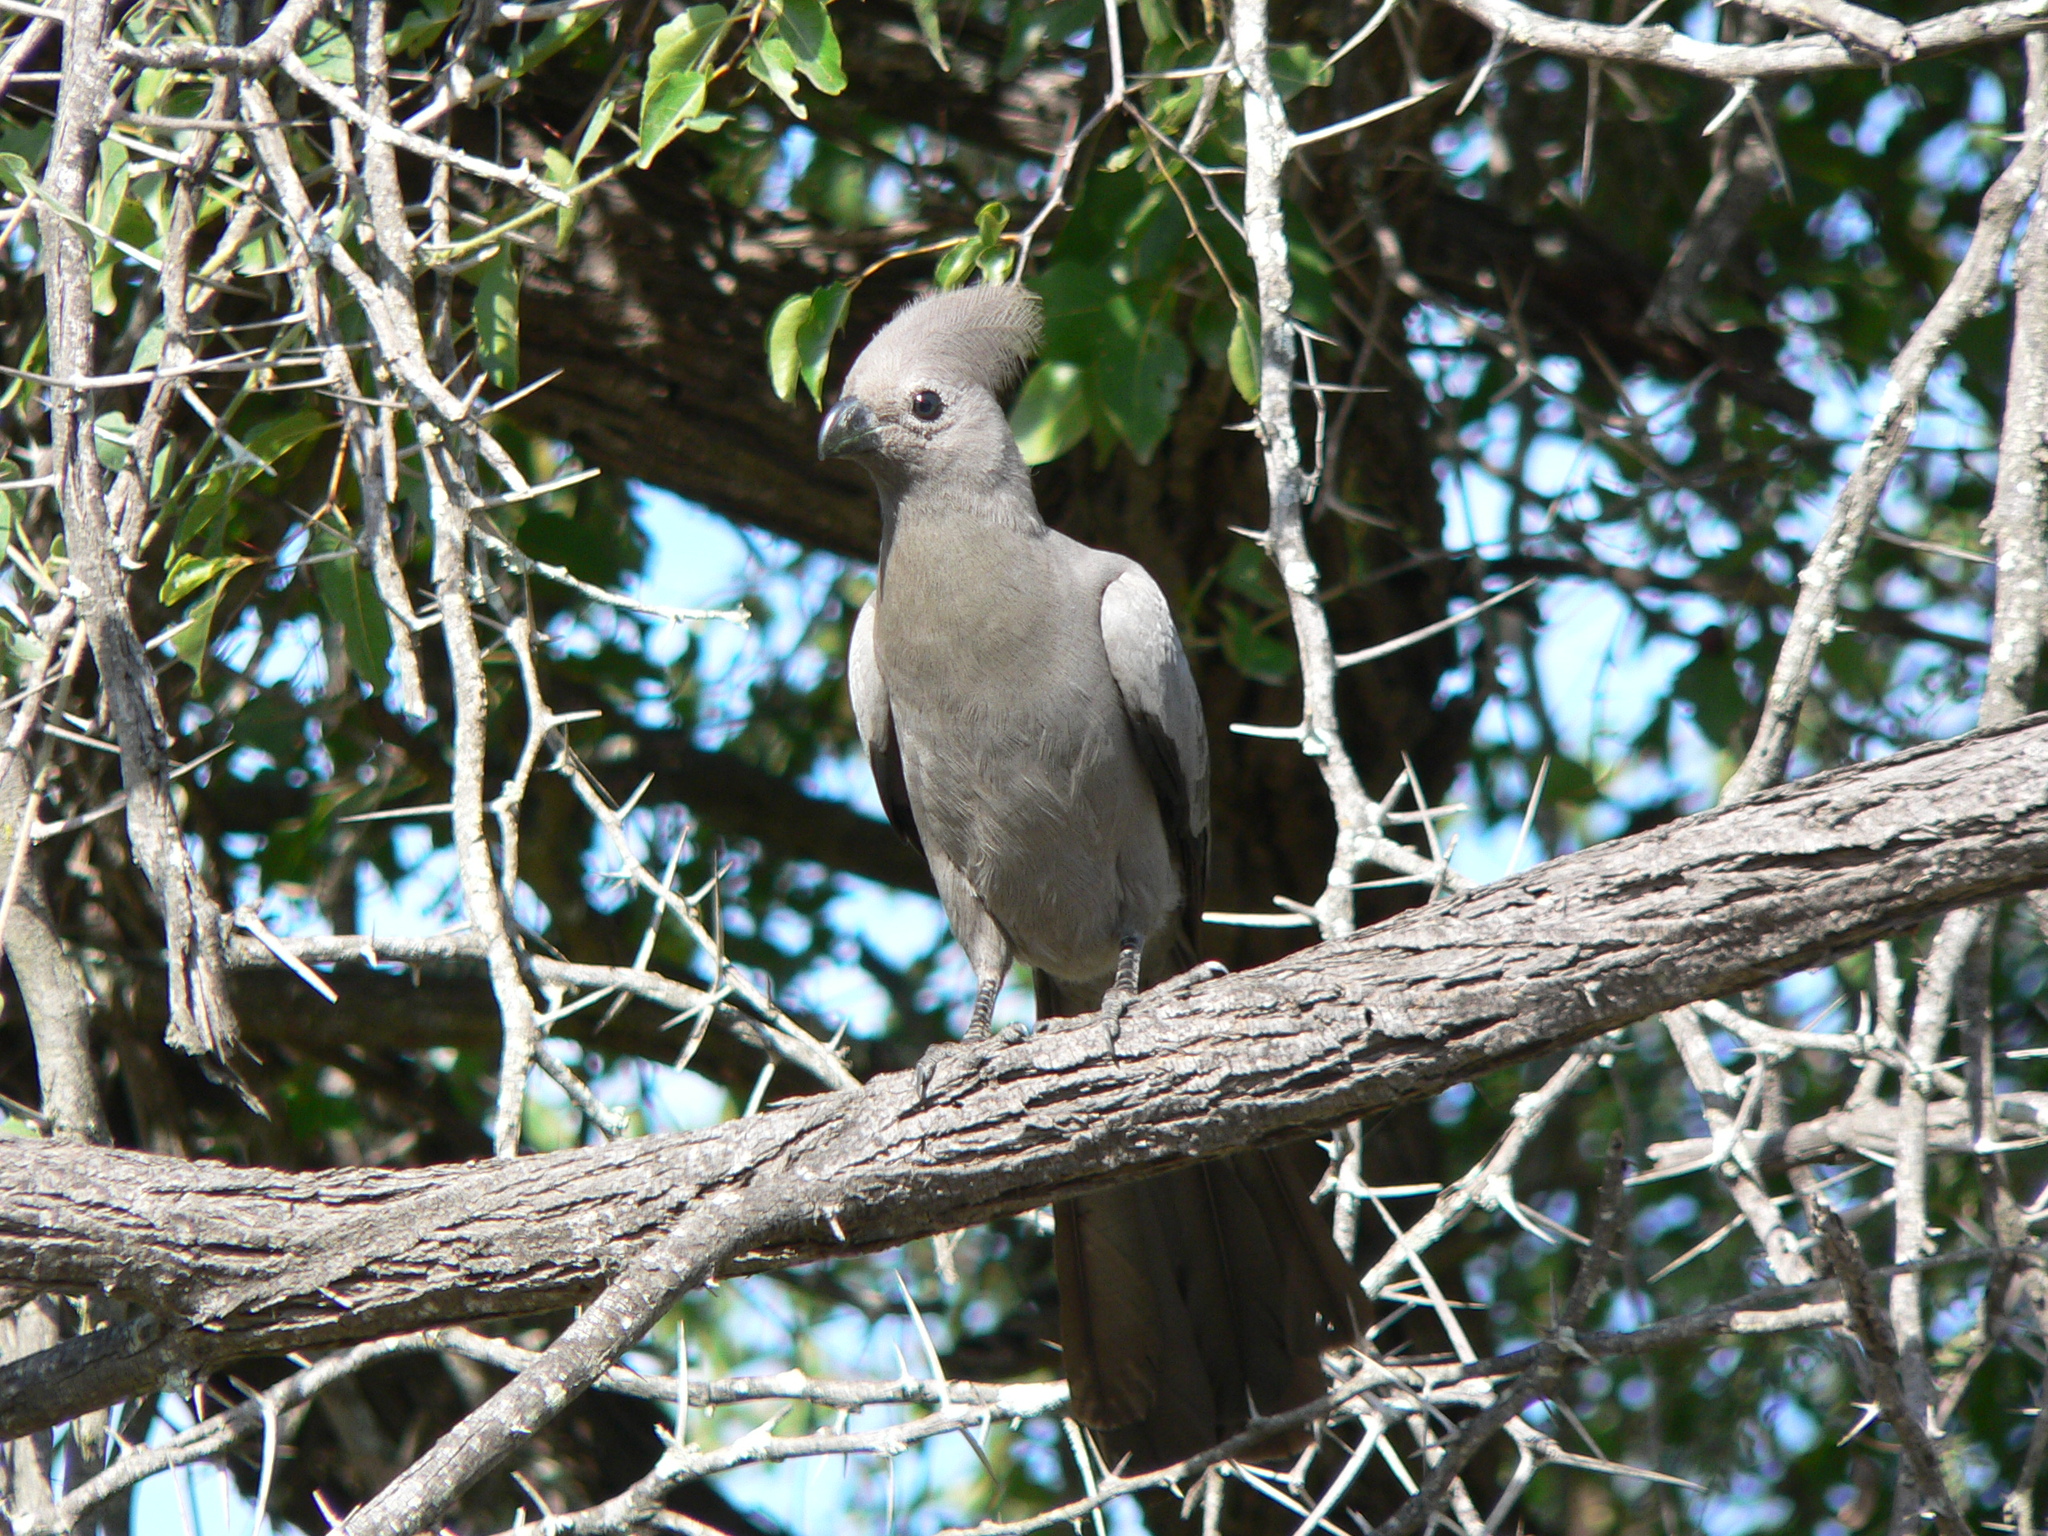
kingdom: Animalia
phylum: Chordata
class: Aves
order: Musophagiformes
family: Musophagidae
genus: Corythaixoides
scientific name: Corythaixoides concolor
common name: Grey go-away-bird
